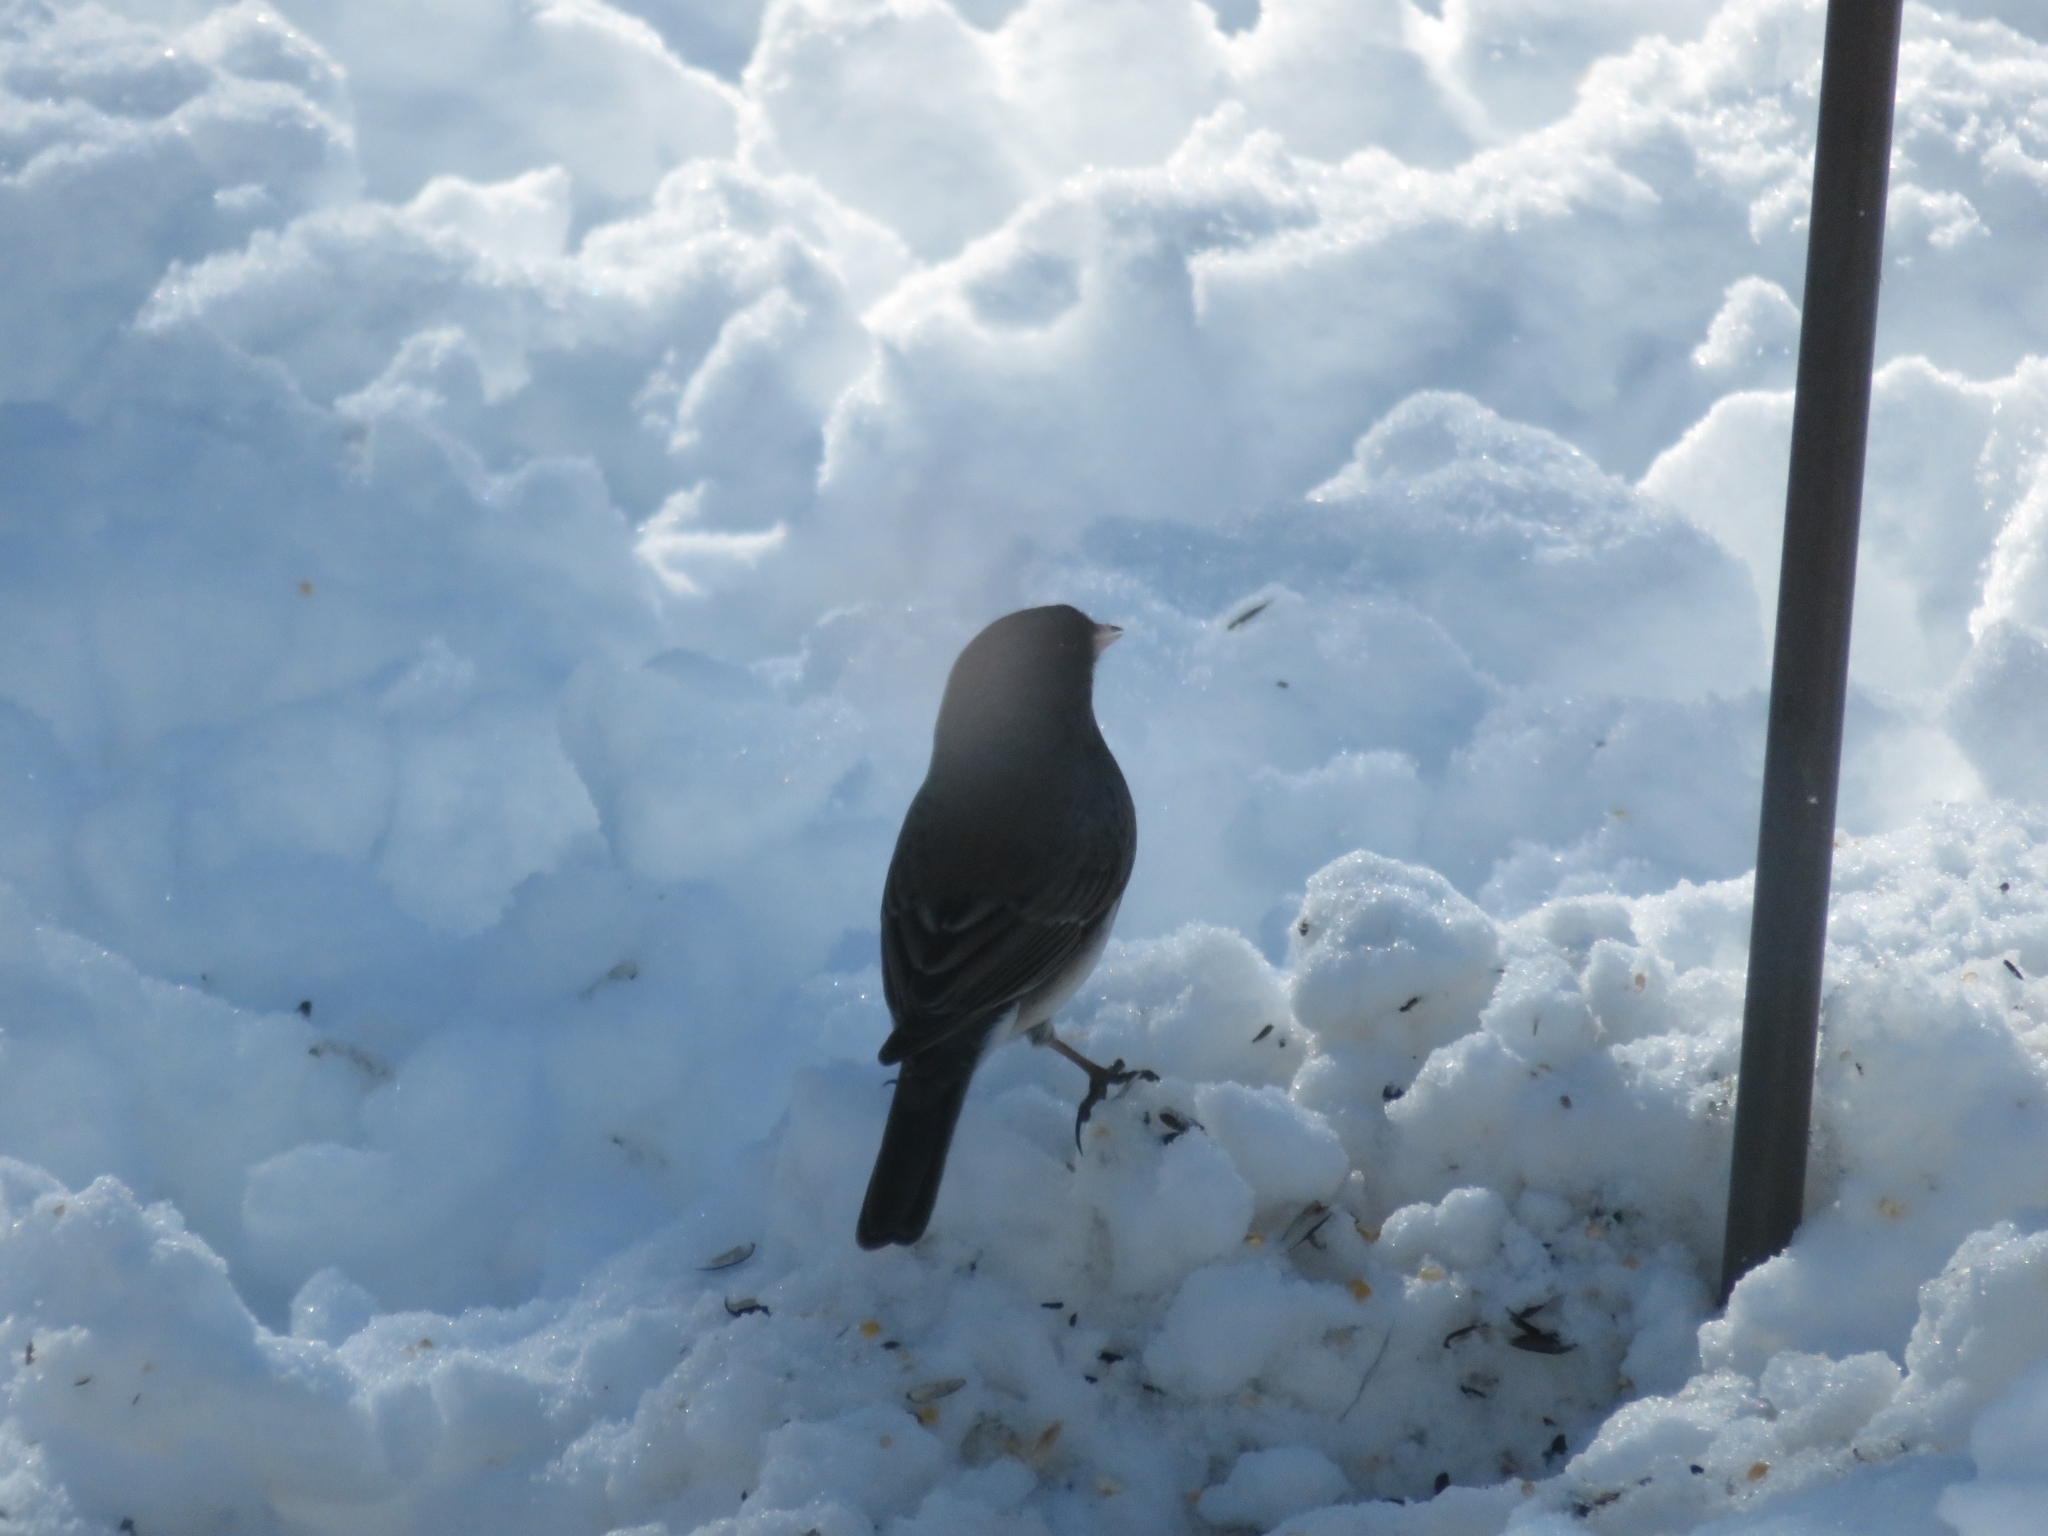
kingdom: Animalia
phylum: Chordata
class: Aves
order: Passeriformes
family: Passerellidae
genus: Junco
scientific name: Junco hyemalis
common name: Dark-eyed junco
